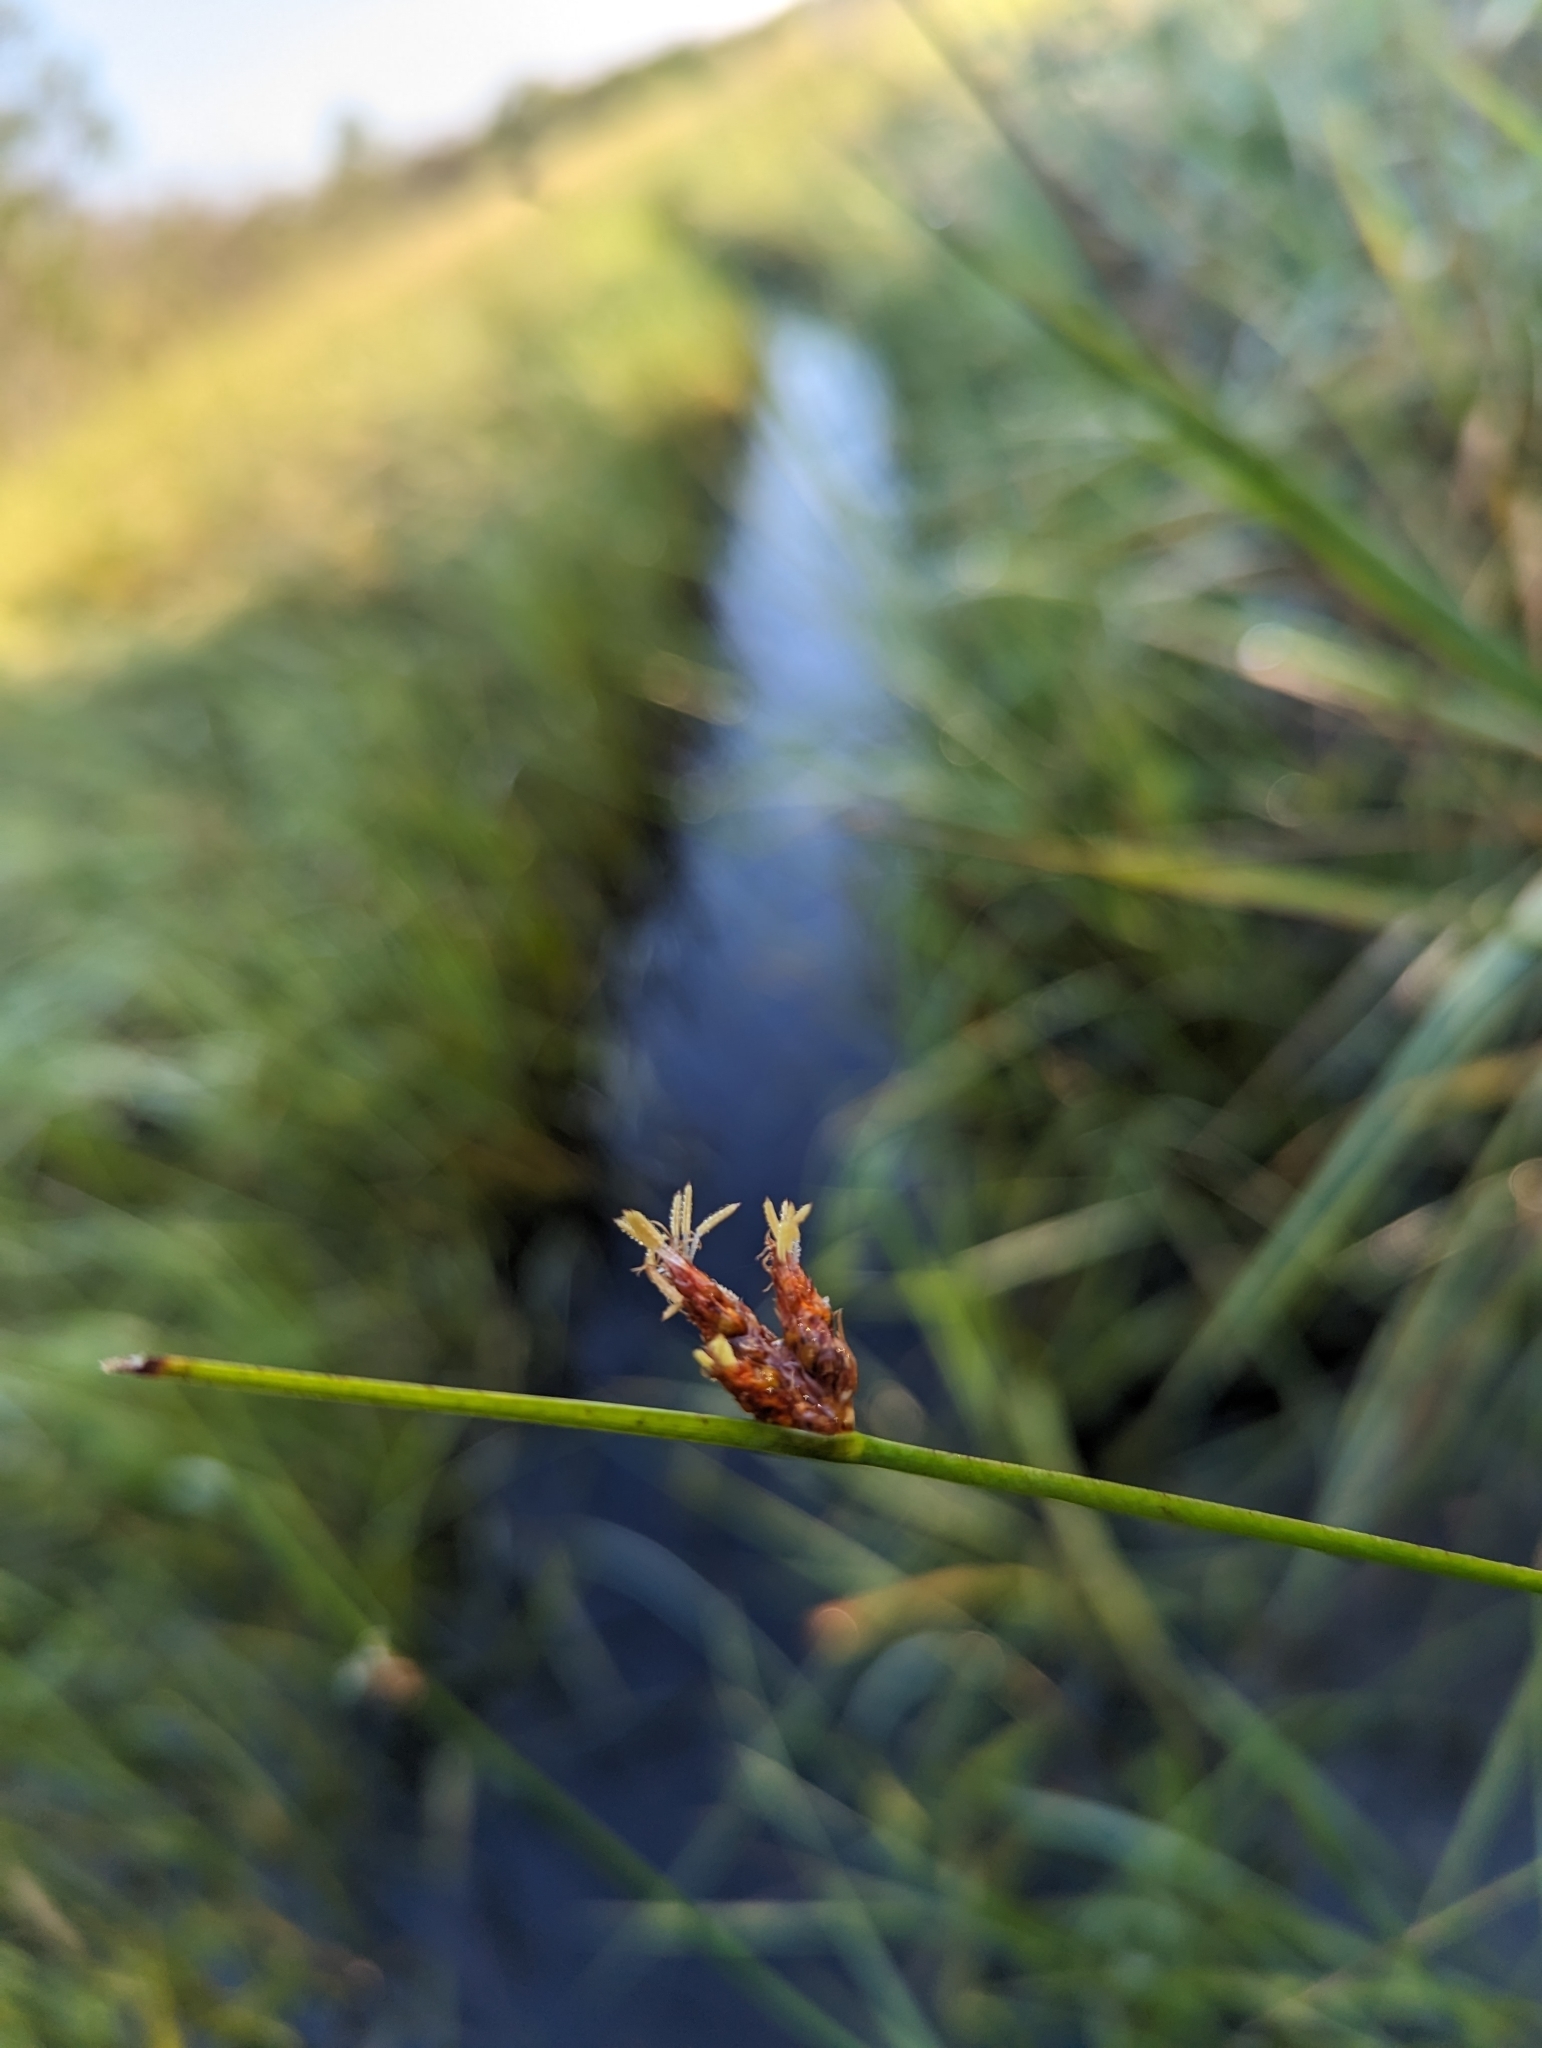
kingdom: Plantae
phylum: Tracheophyta
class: Liliopsida
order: Poales
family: Cyperaceae
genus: Schoenoplectus
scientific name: Schoenoplectus pungens
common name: Sharp club-rush
